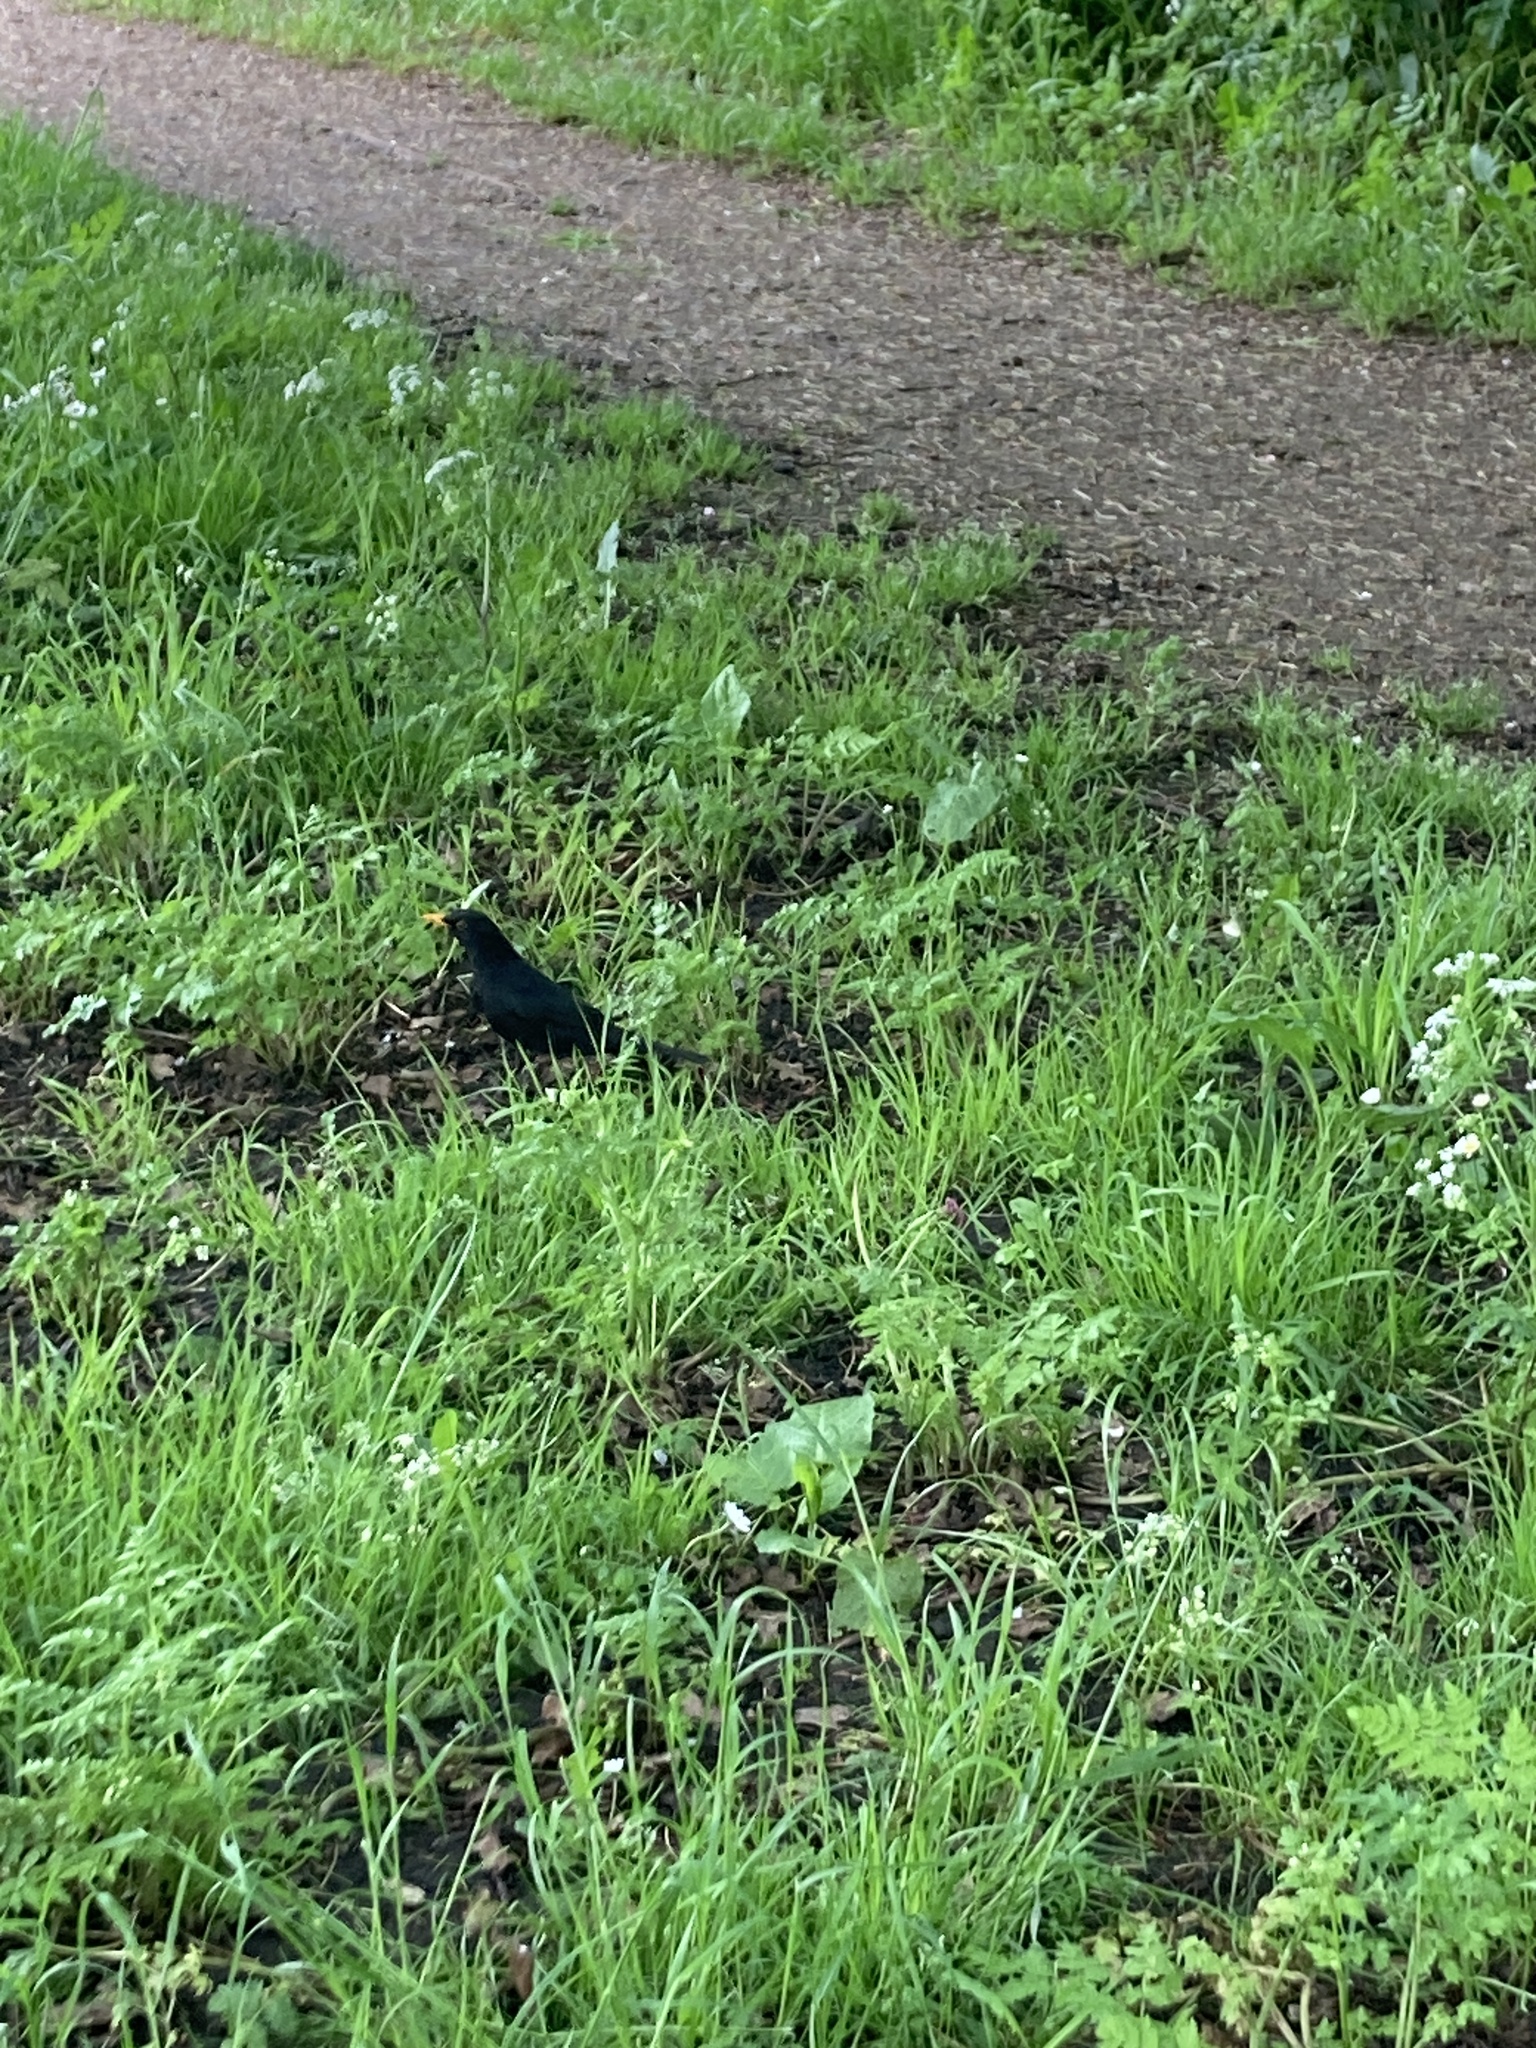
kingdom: Animalia
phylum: Chordata
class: Aves
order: Passeriformes
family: Turdidae
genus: Turdus
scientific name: Turdus merula
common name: Common blackbird
